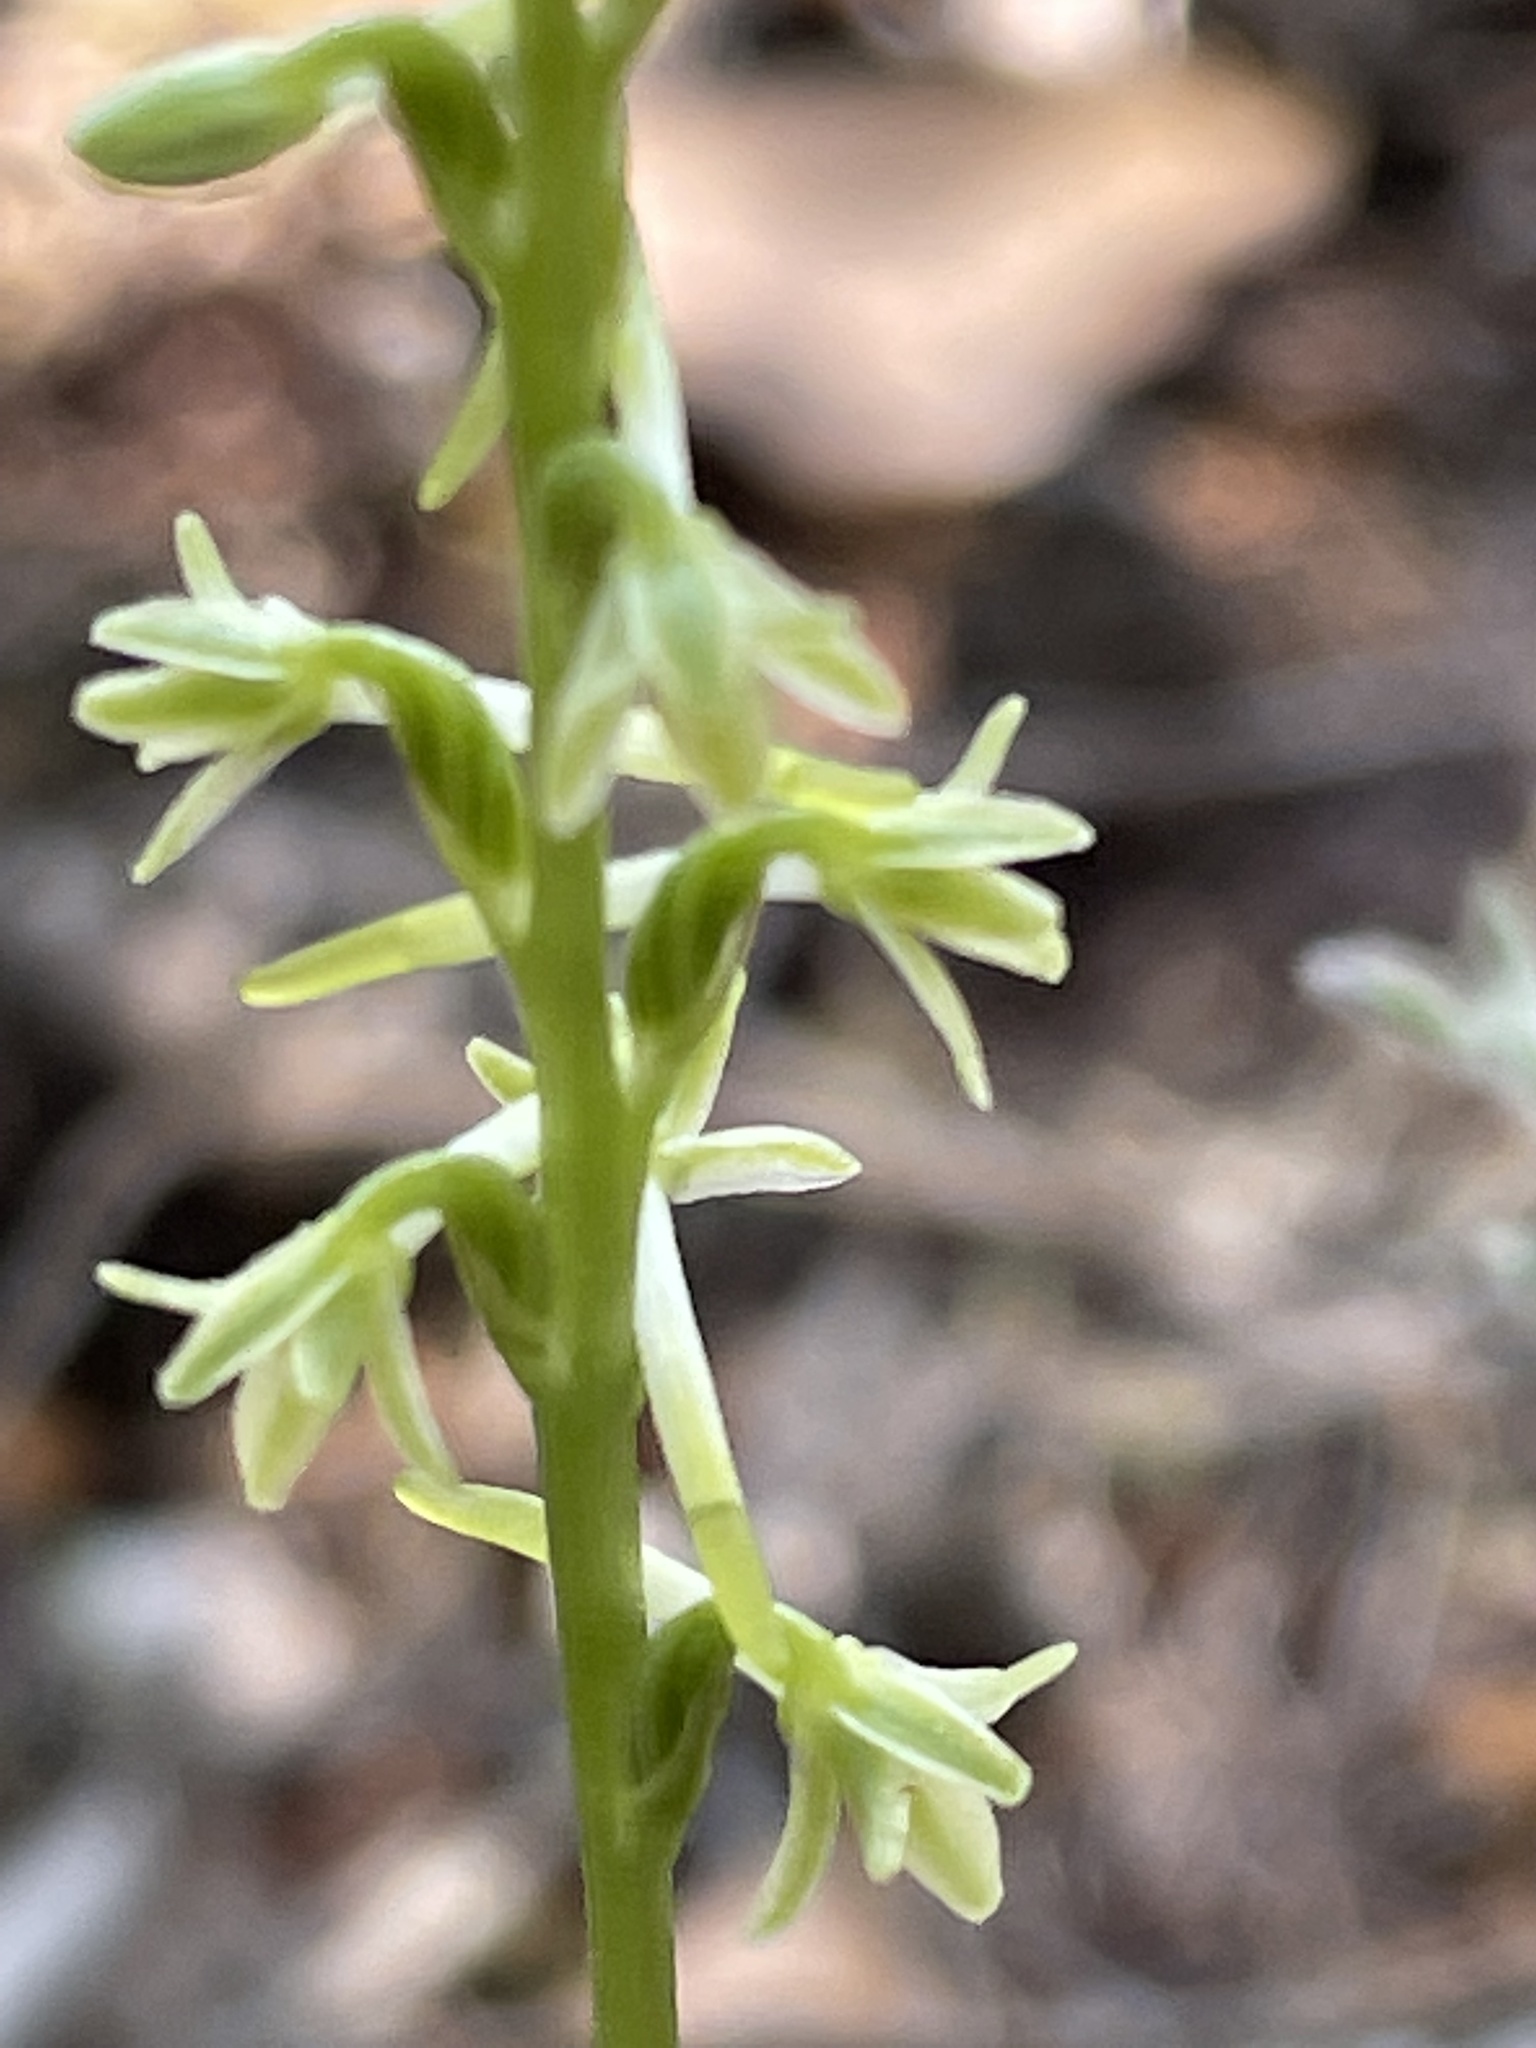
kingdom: Plantae
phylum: Tracheophyta
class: Liliopsida
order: Asparagales
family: Orchidaceae
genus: Platanthera
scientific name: Platanthera transversa
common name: Royal rein orchid
